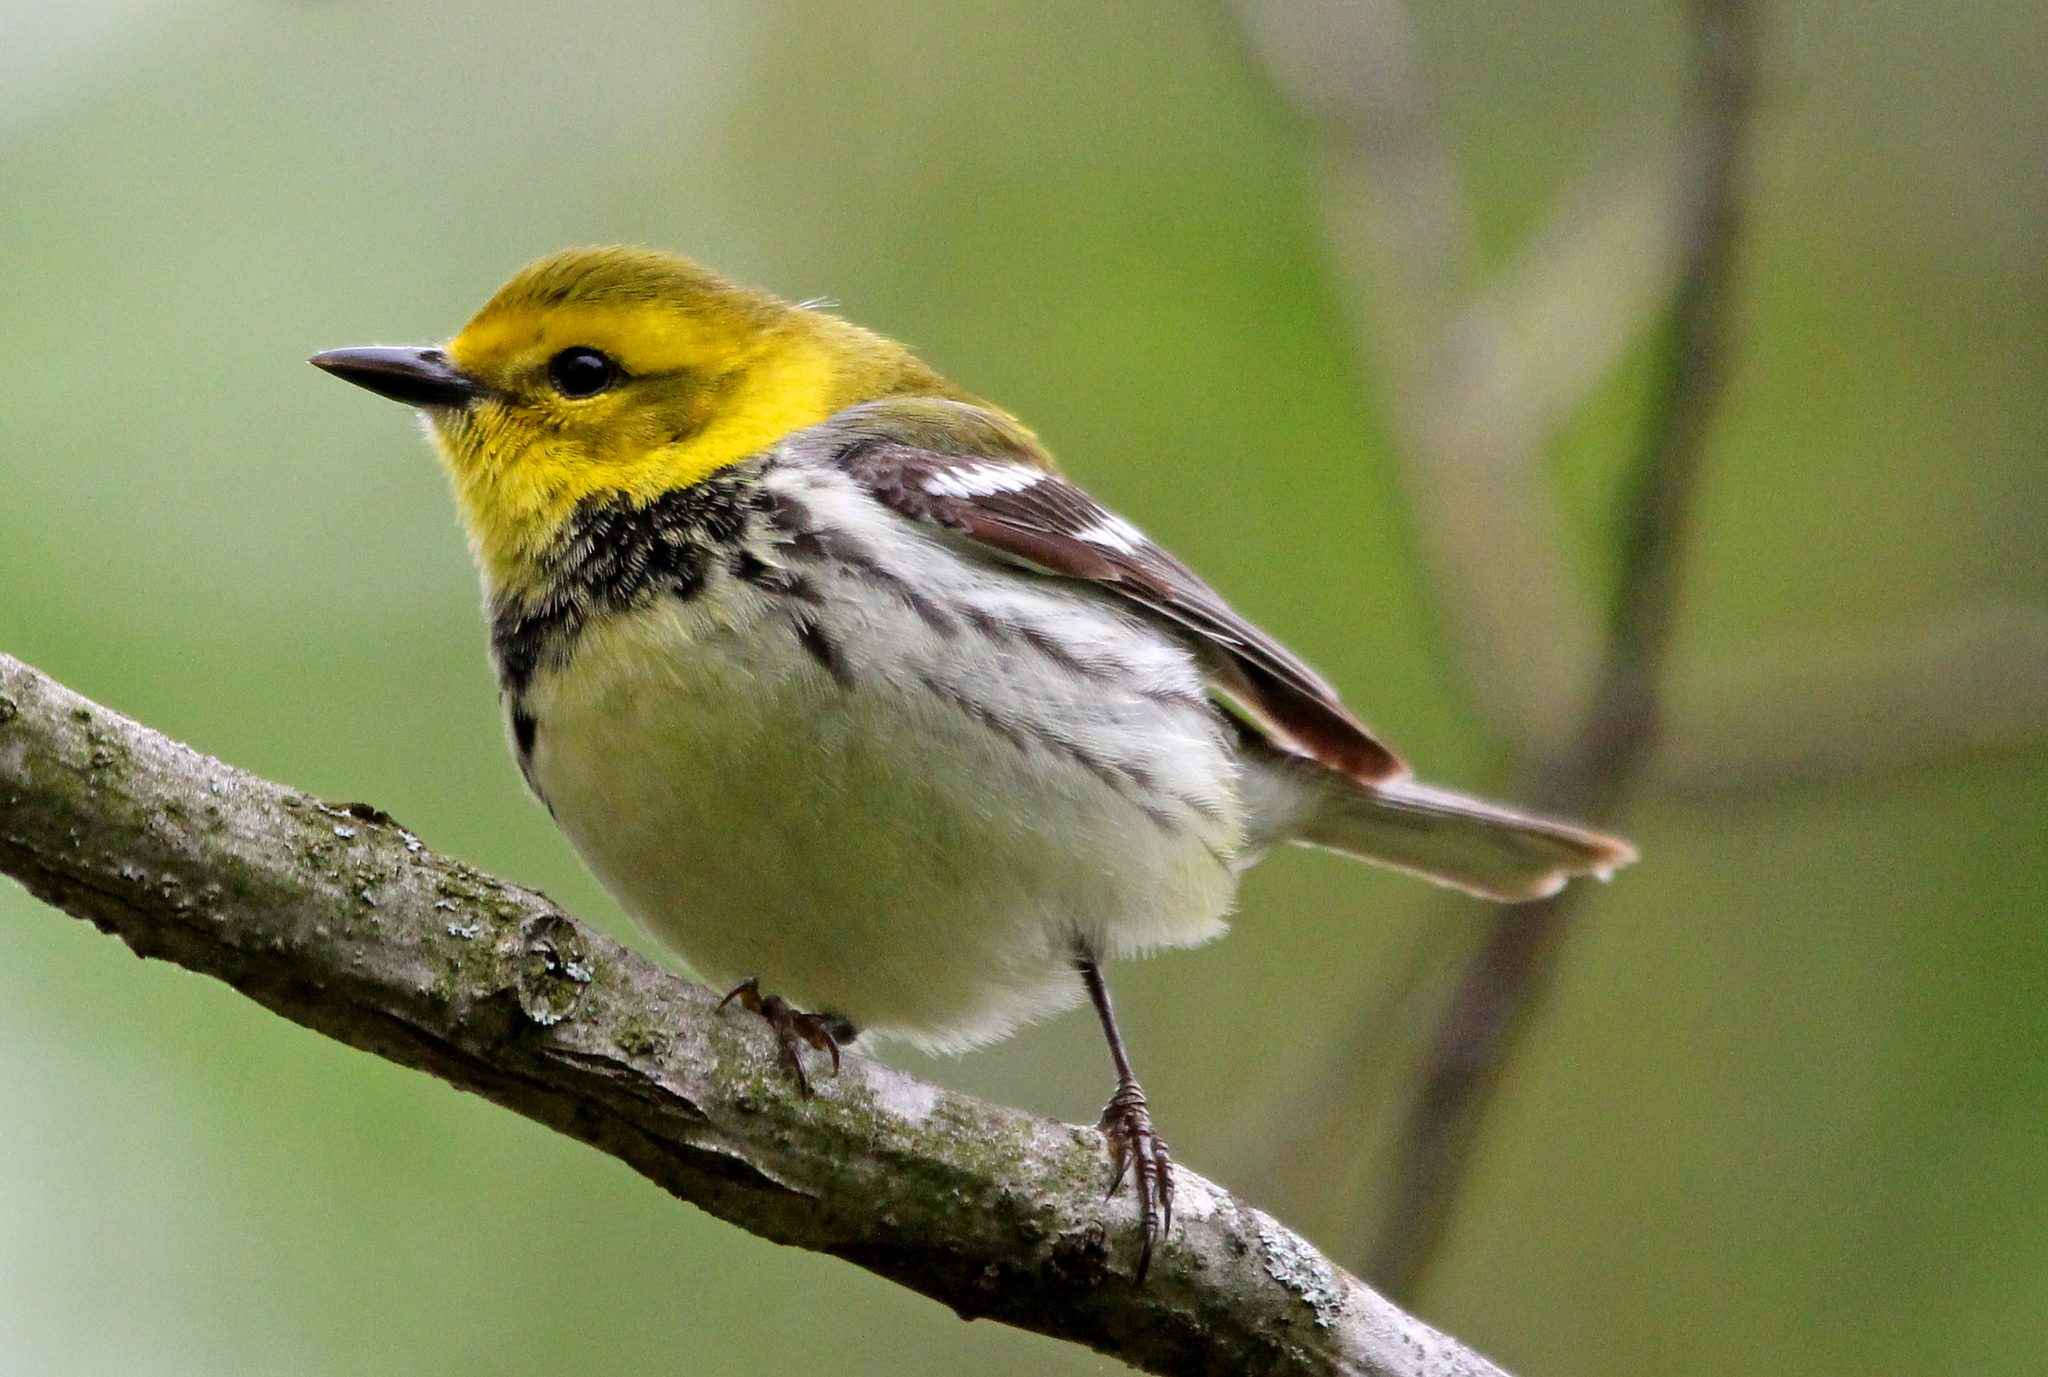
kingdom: Animalia
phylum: Chordata
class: Aves
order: Passeriformes
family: Parulidae
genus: Setophaga
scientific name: Setophaga virens
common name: Black-throated green warbler
